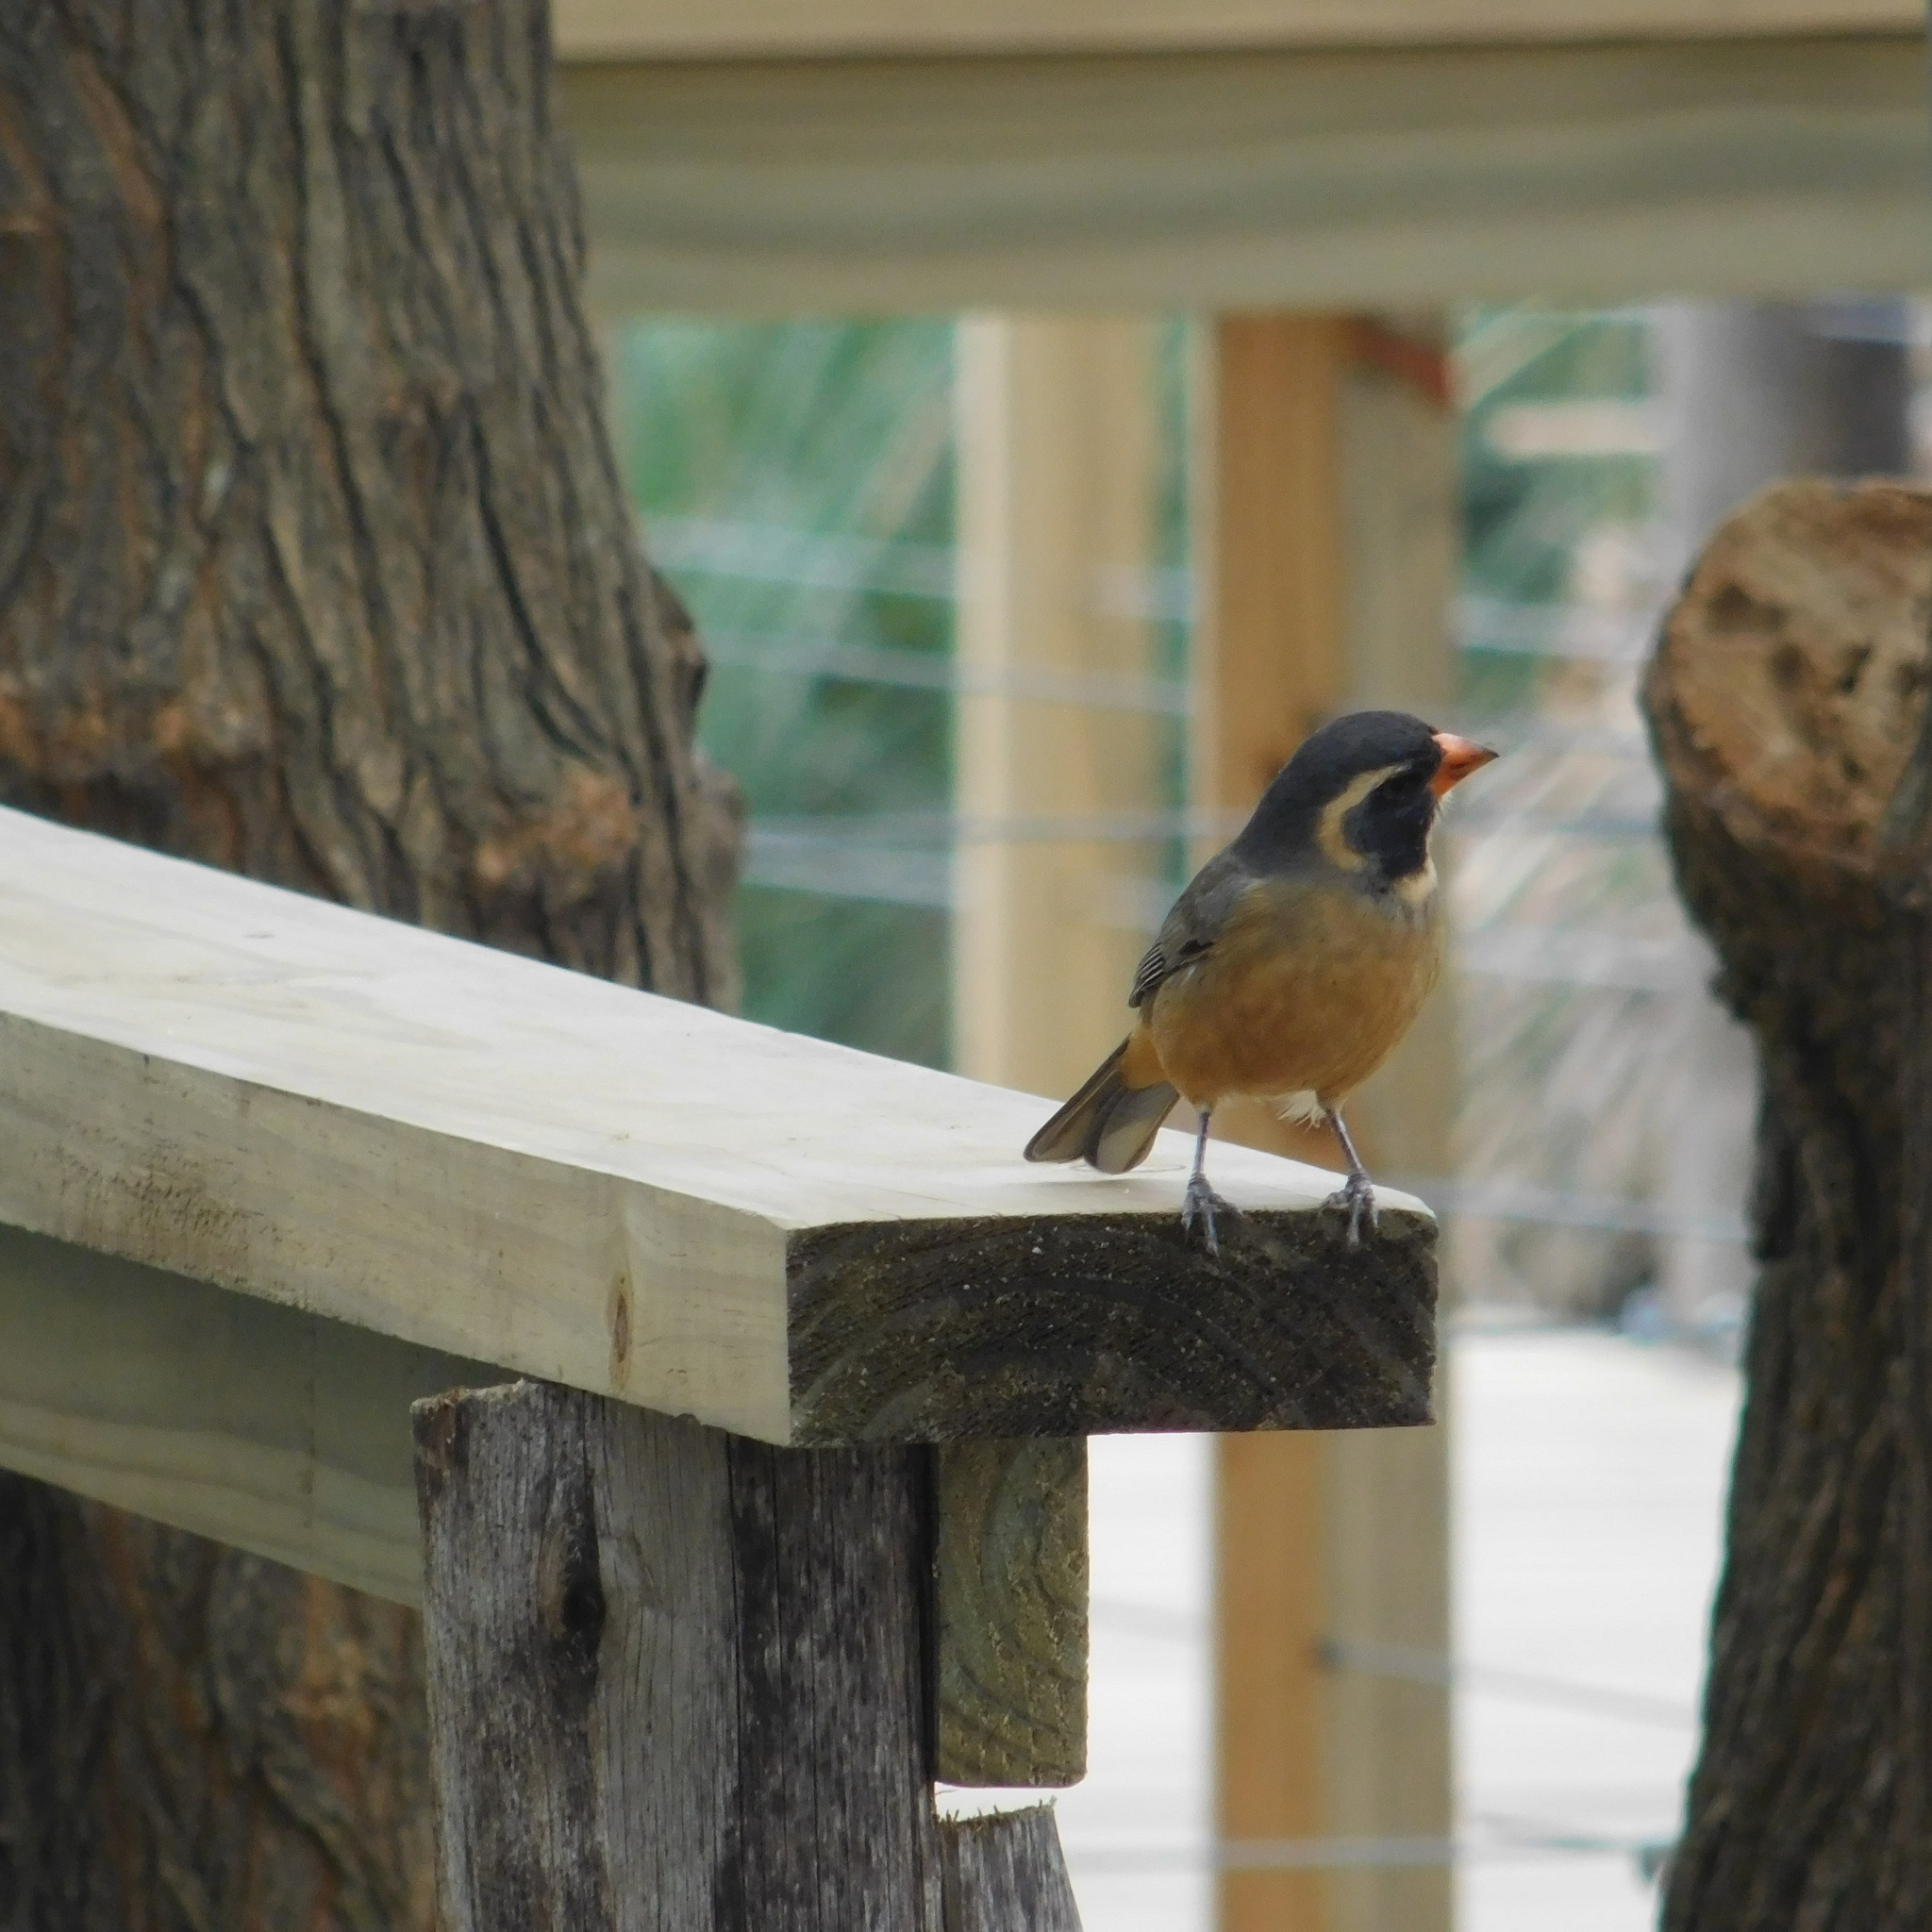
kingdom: Animalia
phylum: Chordata
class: Aves
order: Passeriformes
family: Thraupidae
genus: Saltator
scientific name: Saltator aurantiirostris
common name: Golden-billed saltator
